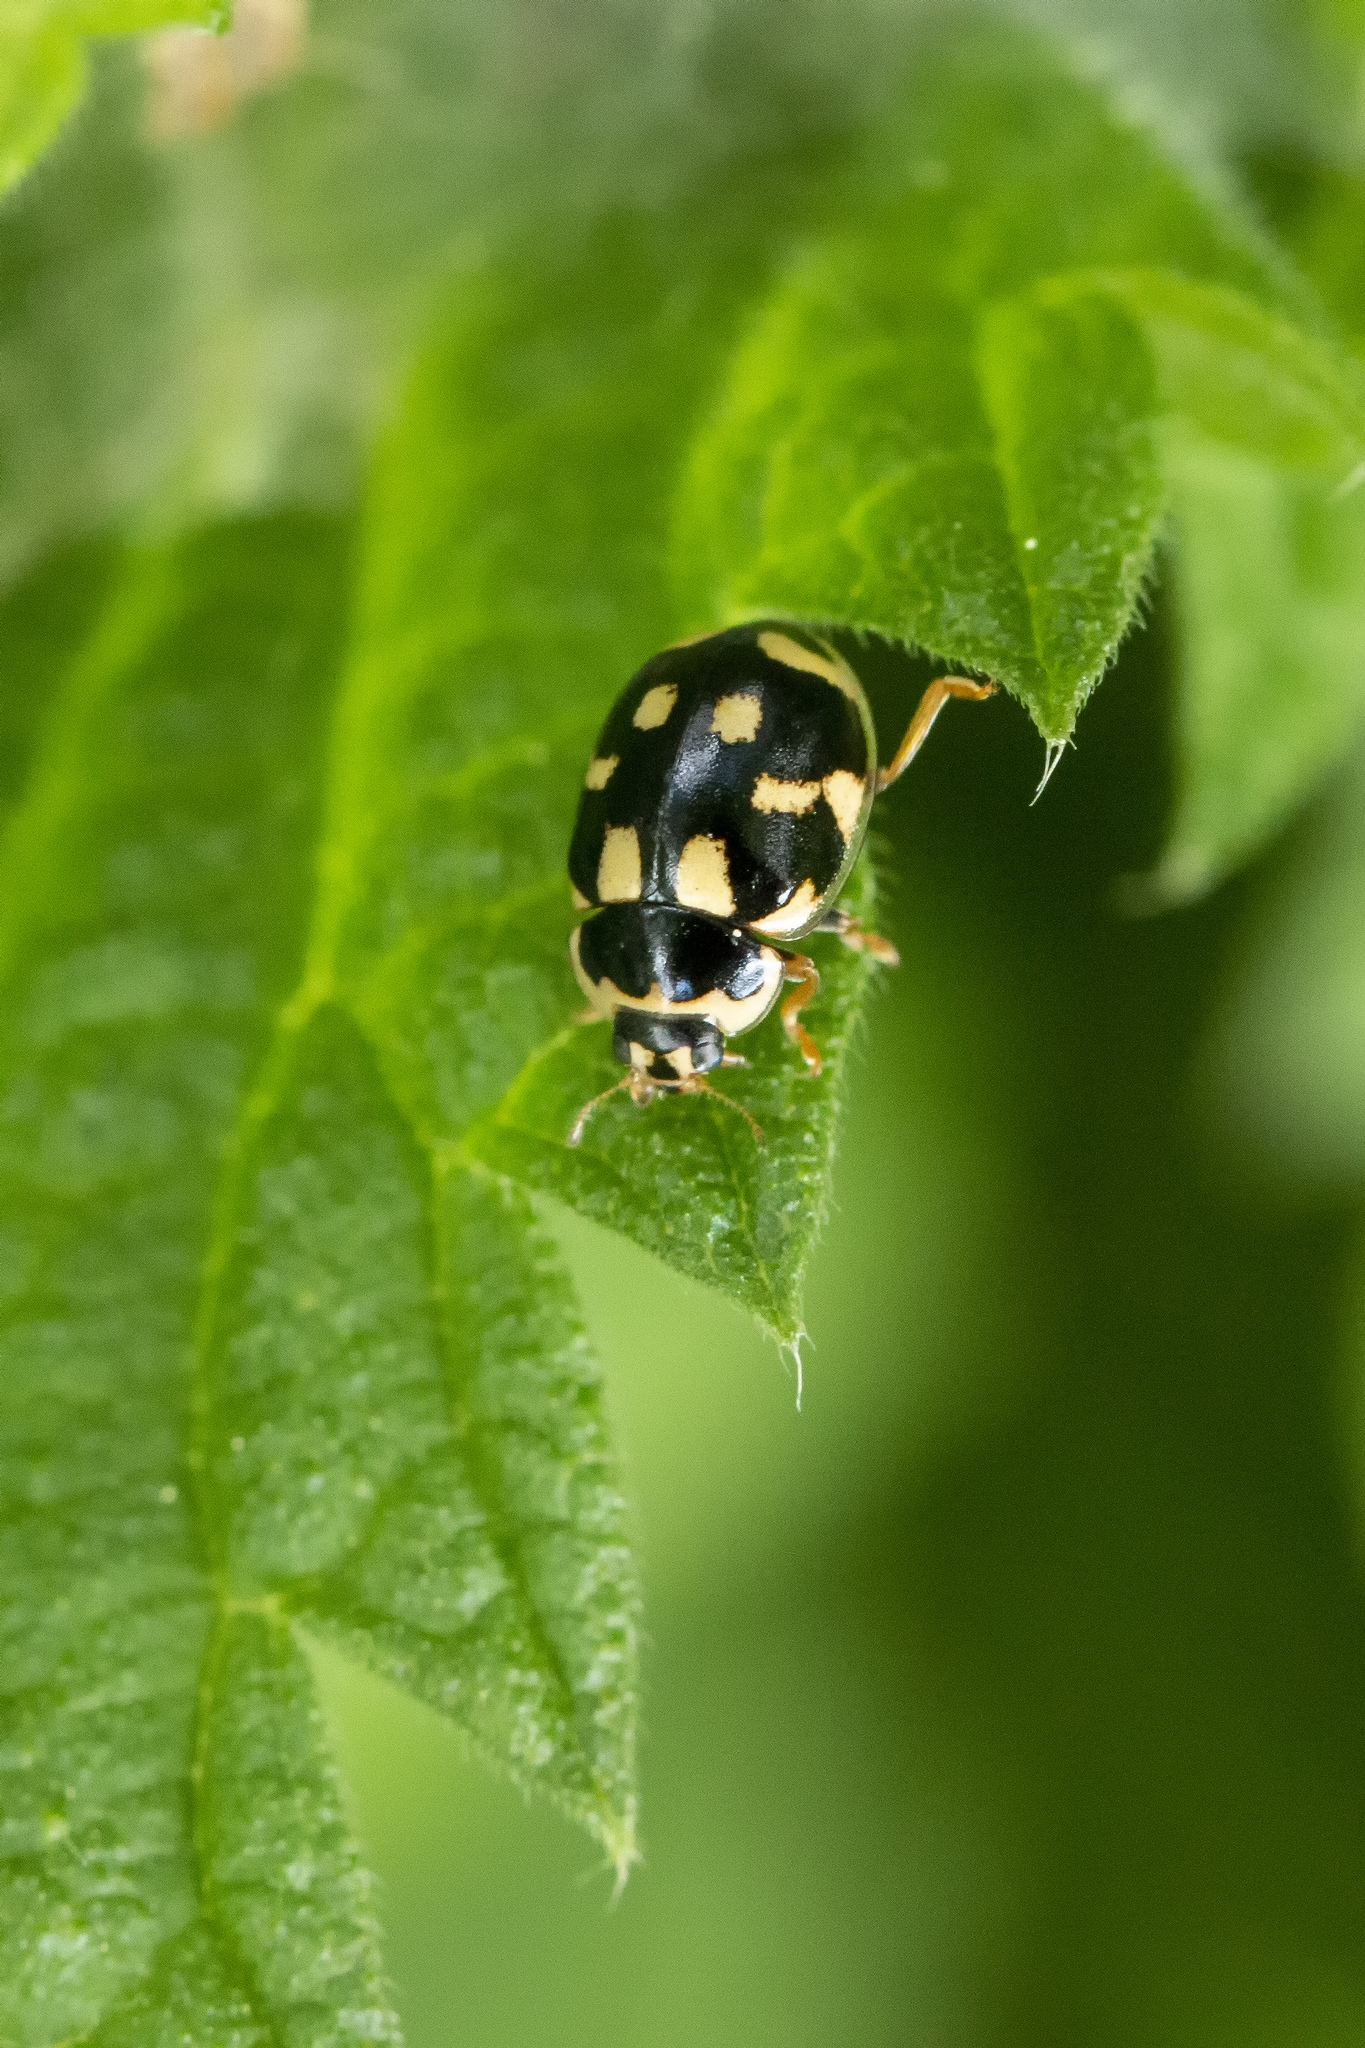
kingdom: Animalia
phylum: Arthropoda
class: Insecta
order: Coleoptera
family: Coccinellidae
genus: Propylaea
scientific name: Propylaea quatuordecimpunctata
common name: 14-spotted ladybird beetle
